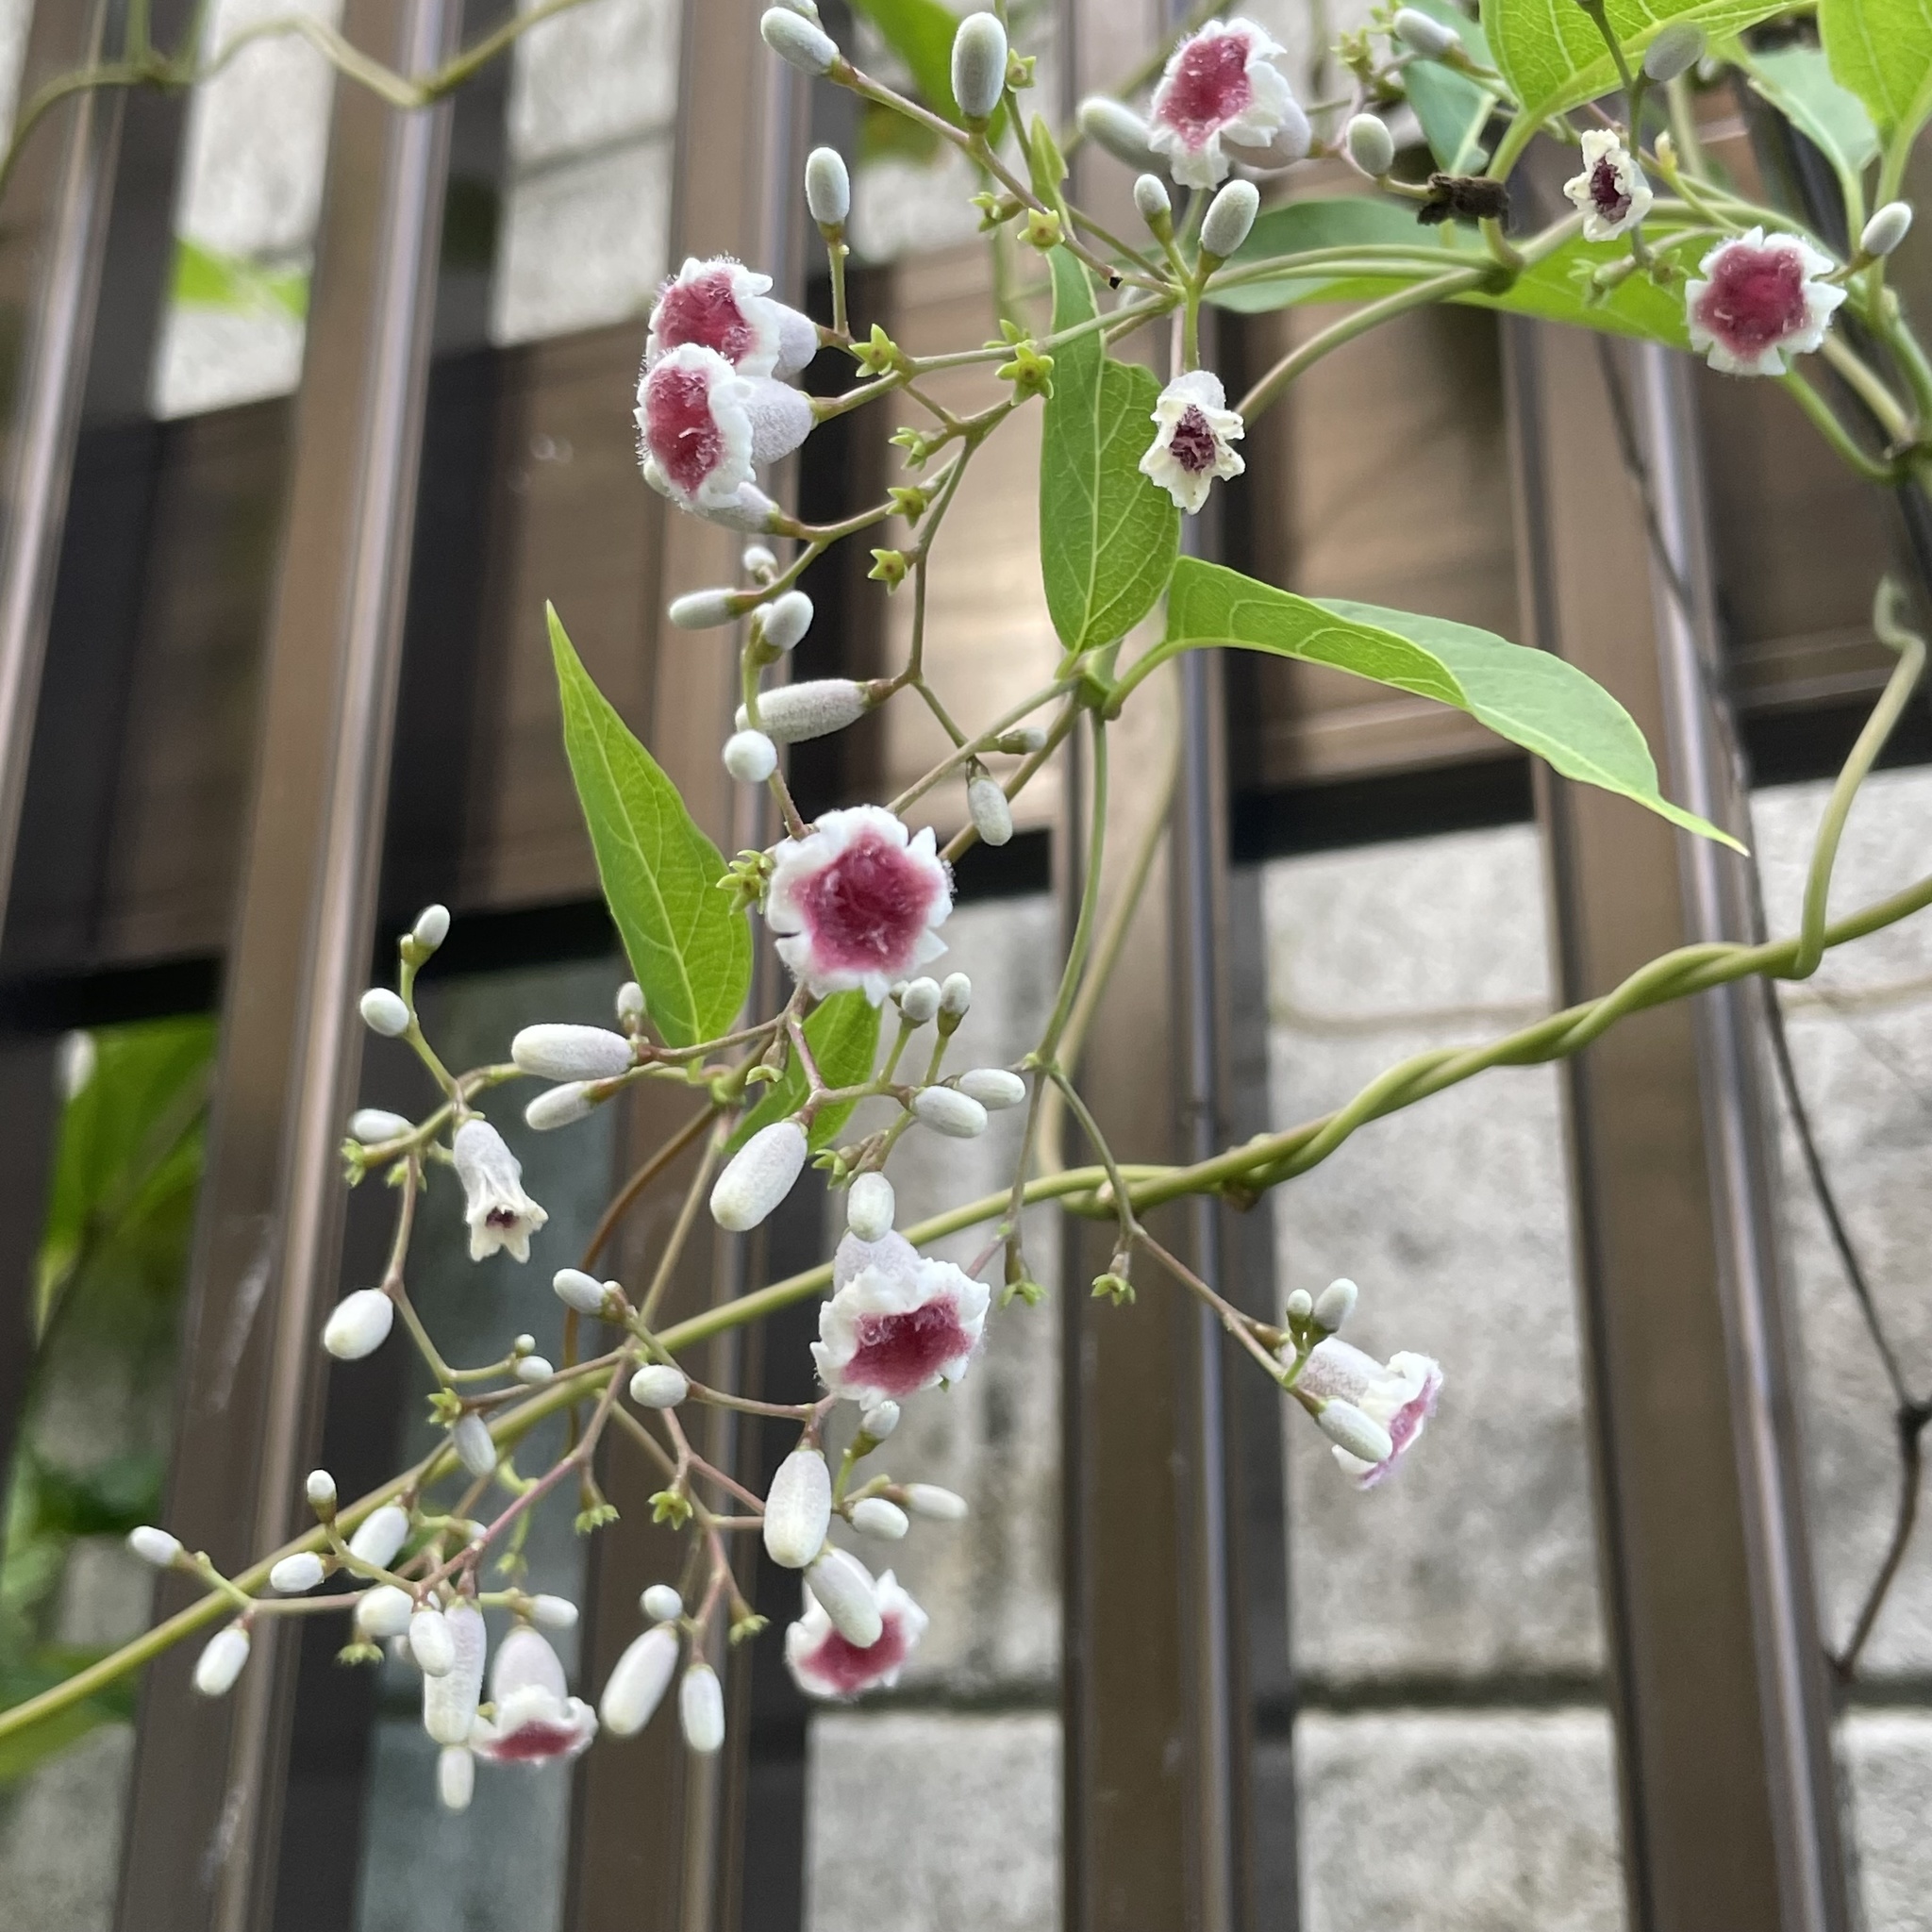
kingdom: Plantae
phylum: Tracheophyta
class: Magnoliopsida
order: Gentianales
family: Rubiaceae
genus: Paederia
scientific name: Paederia foetida
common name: Stinkvine
